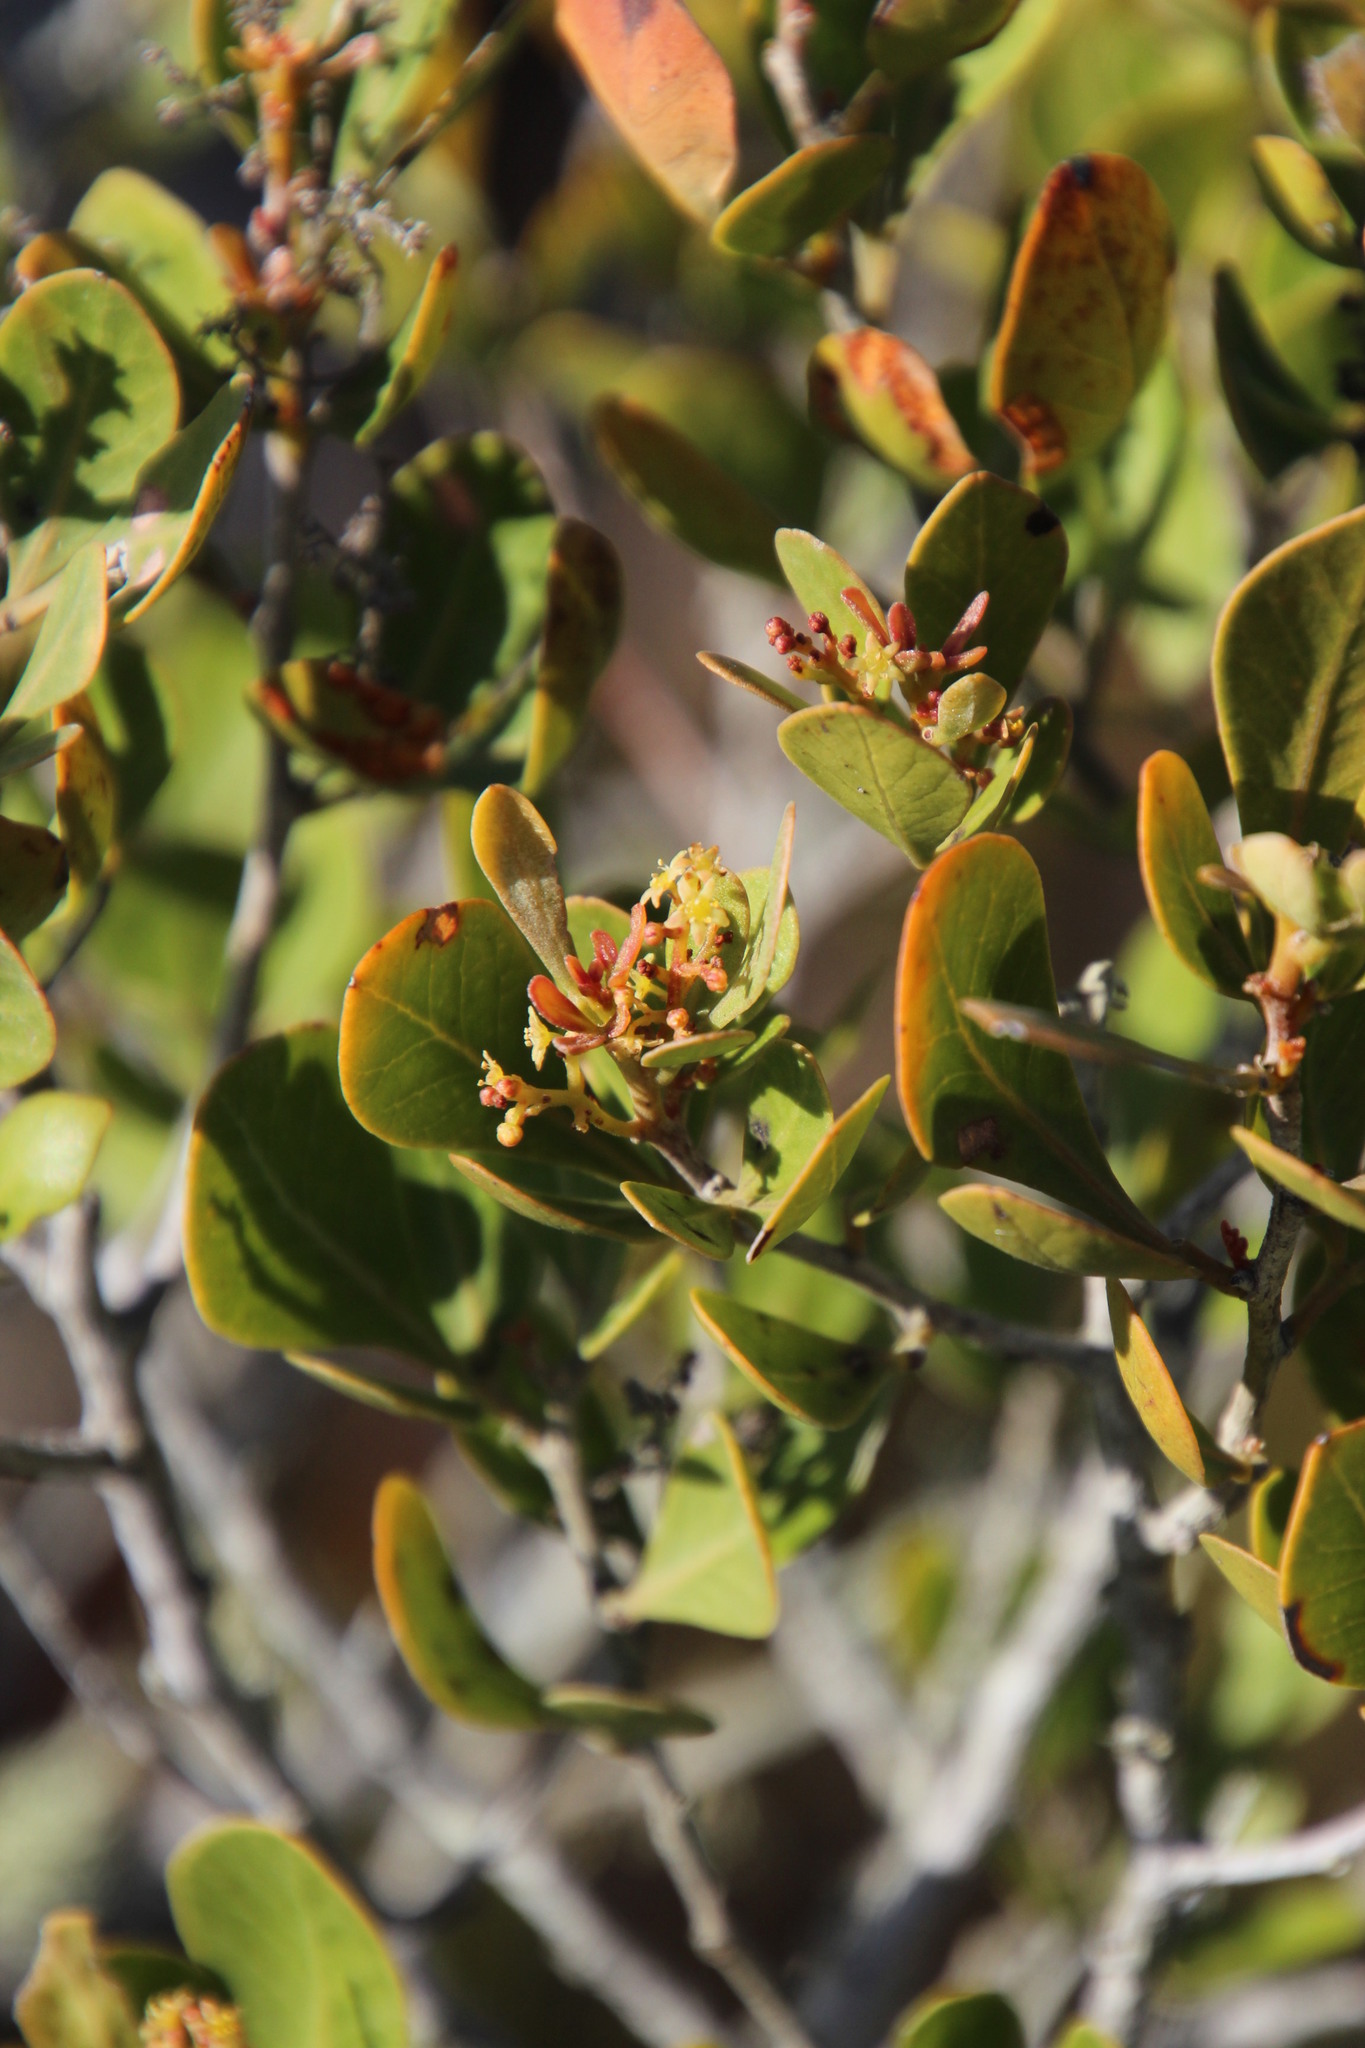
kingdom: Plantae
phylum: Tracheophyta
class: Magnoliopsida
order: Sapindales
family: Anacardiaceae
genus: Searsia
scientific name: Searsia lucida
